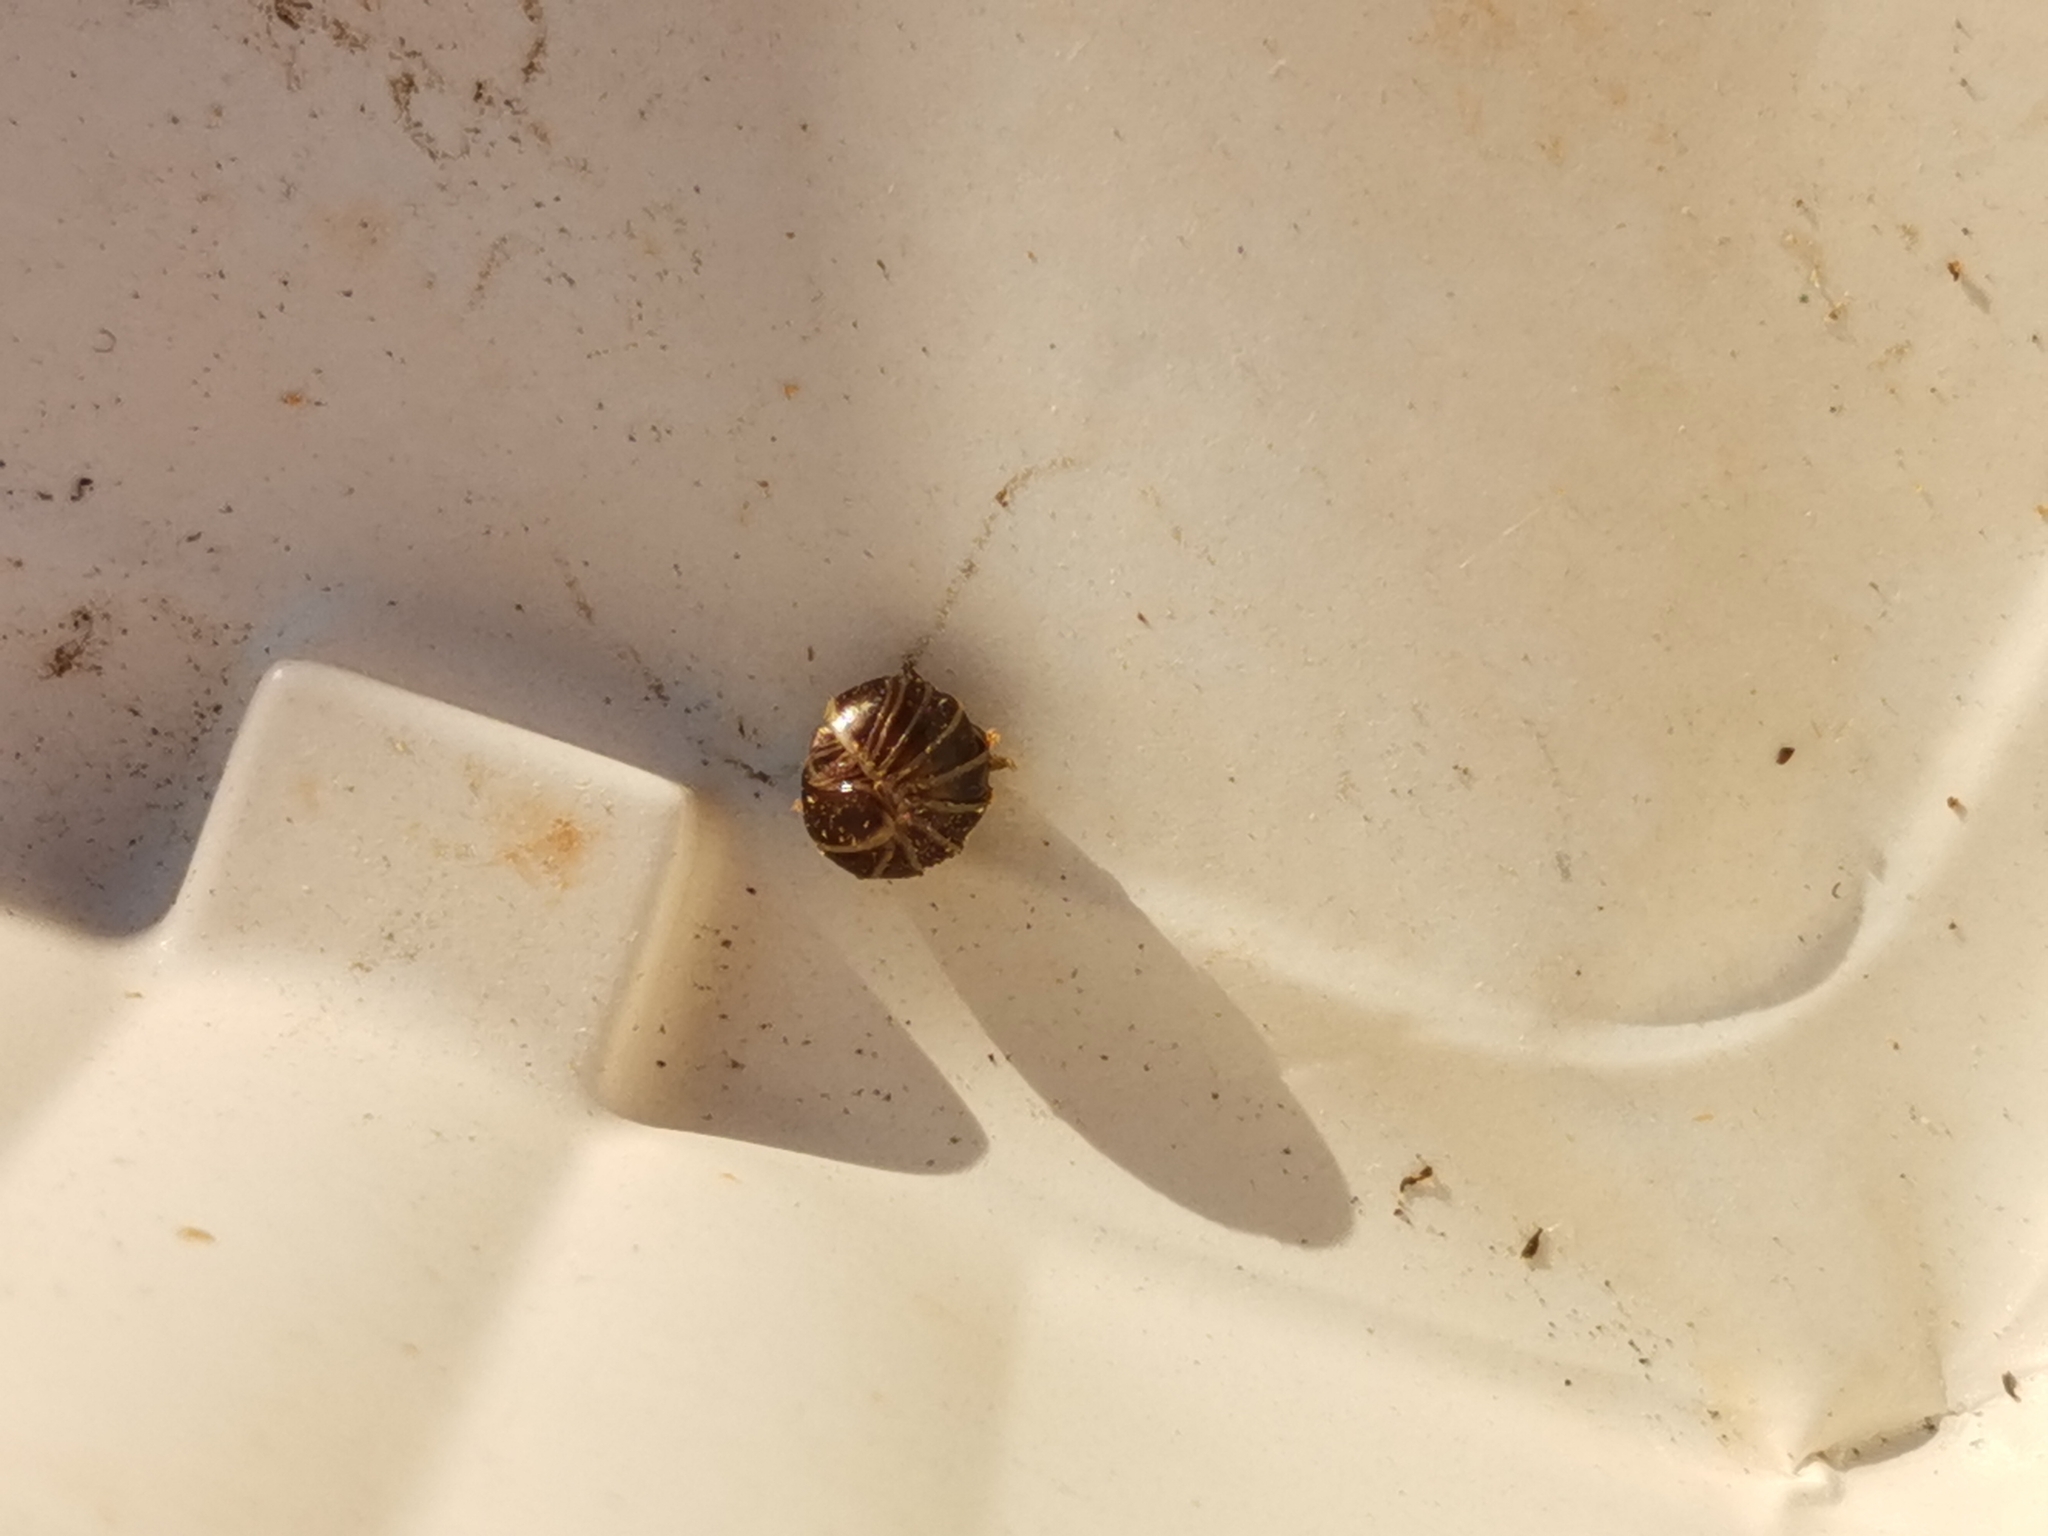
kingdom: Animalia
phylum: Arthropoda
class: Diplopoda
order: Glomerida
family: Glomeridae
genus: Glomeris
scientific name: Glomeris marginata
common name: Bordered pill millipede
